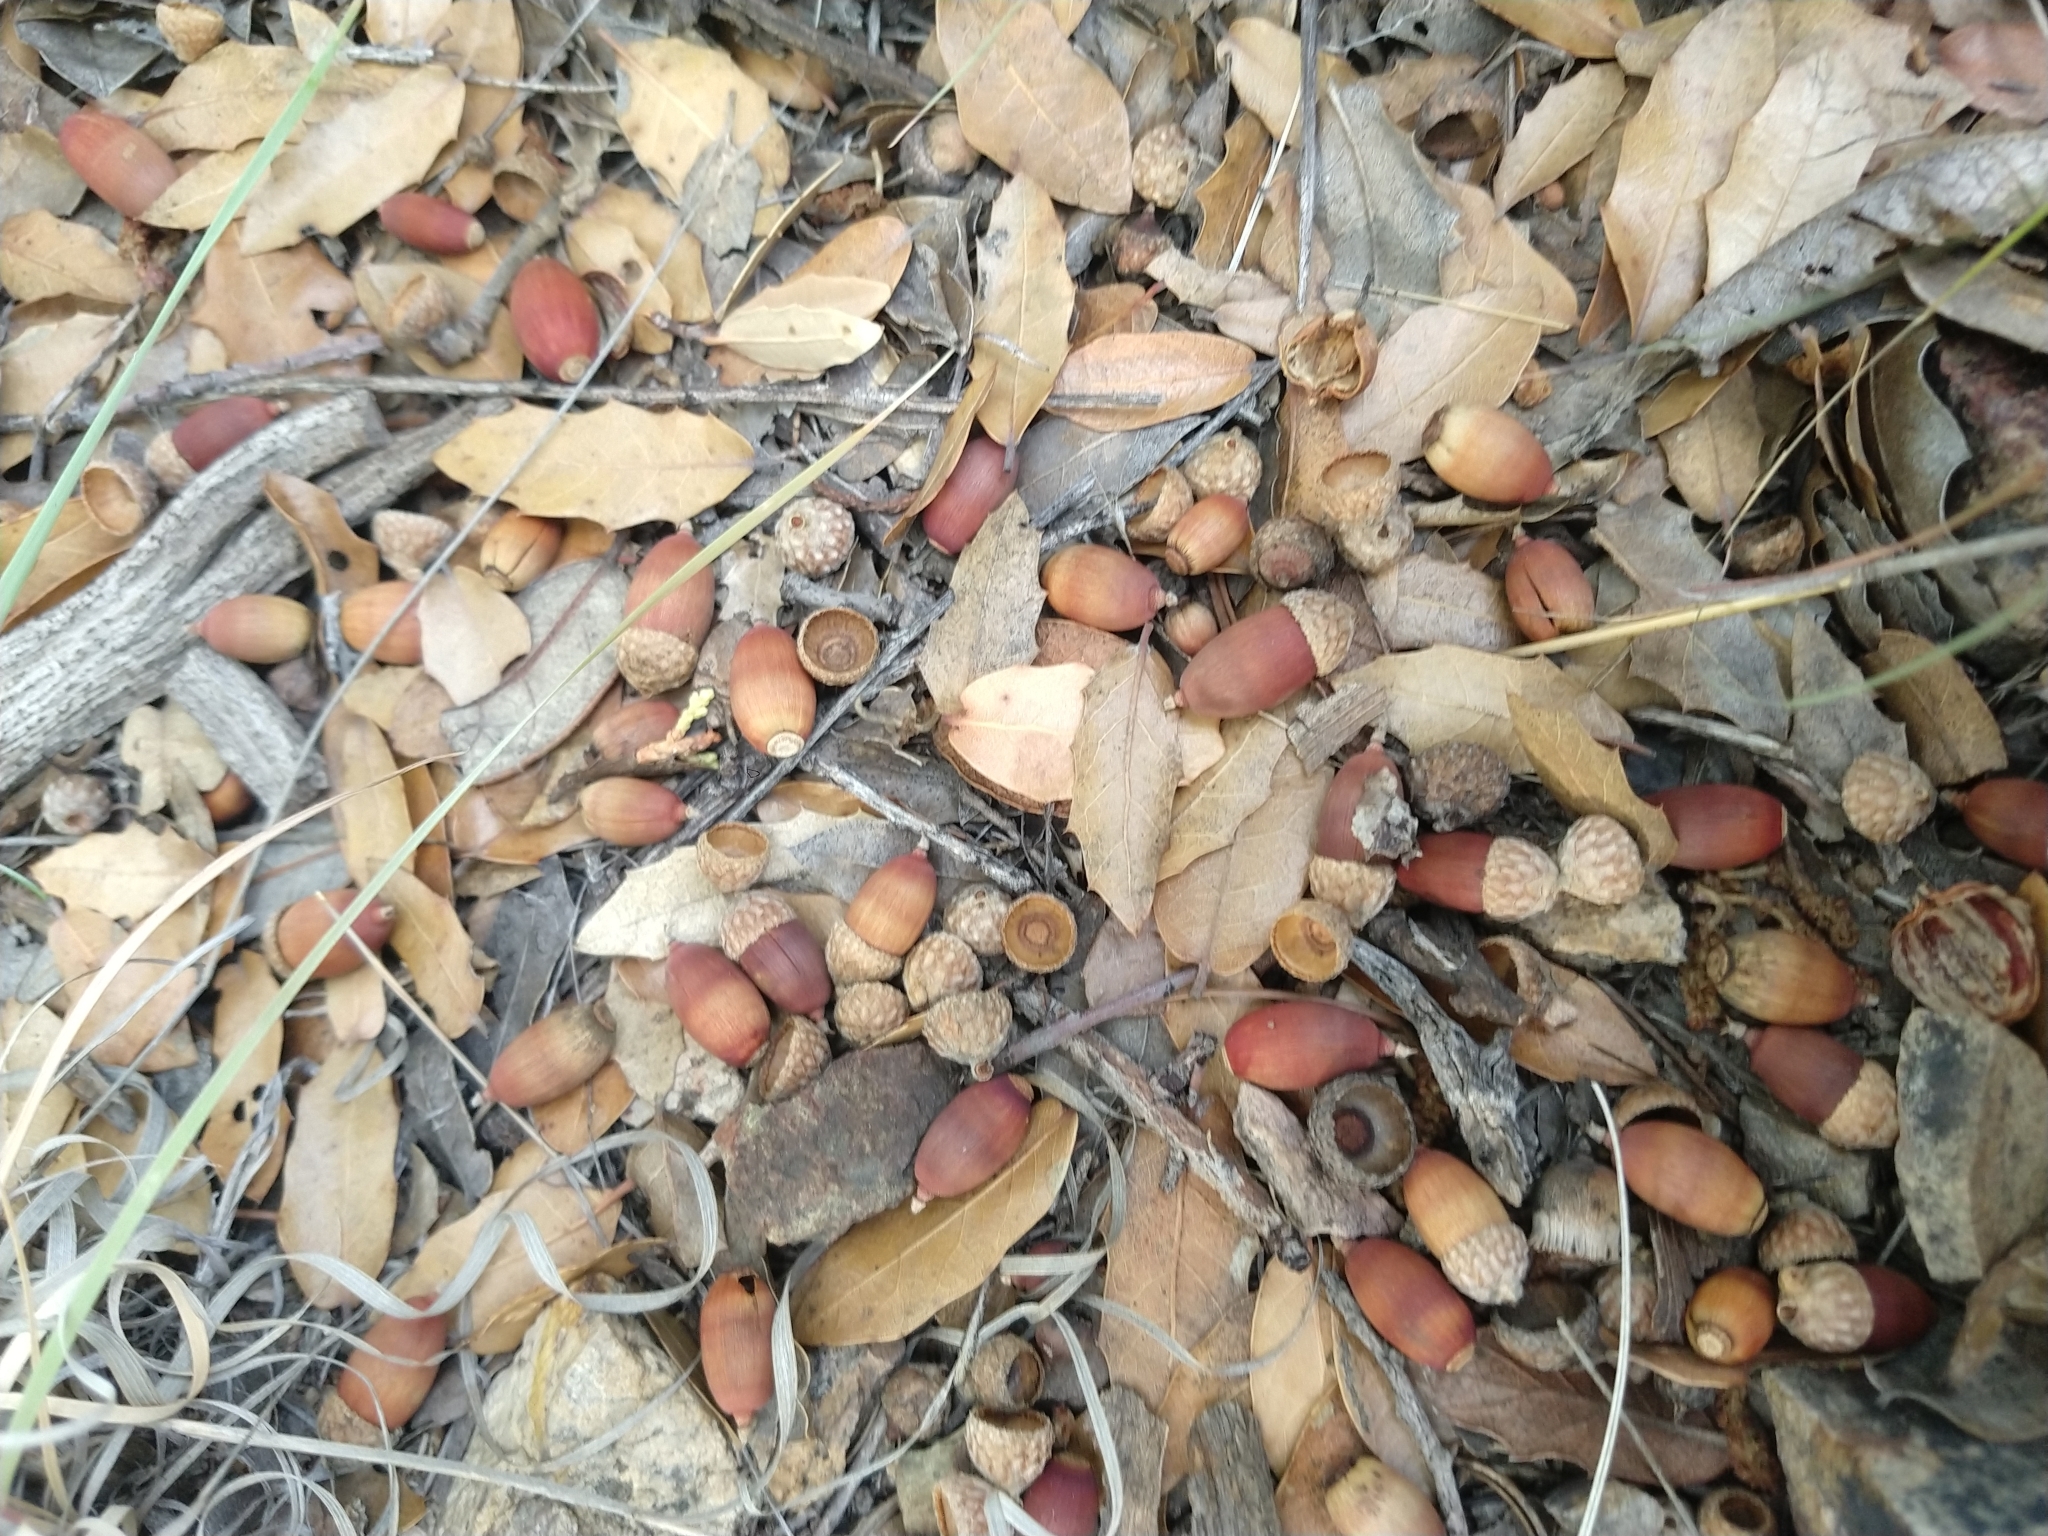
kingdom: Plantae
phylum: Tracheophyta
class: Magnoliopsida
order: Fagales
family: Fagaceae
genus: Quercus
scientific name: Quercus eduardi
